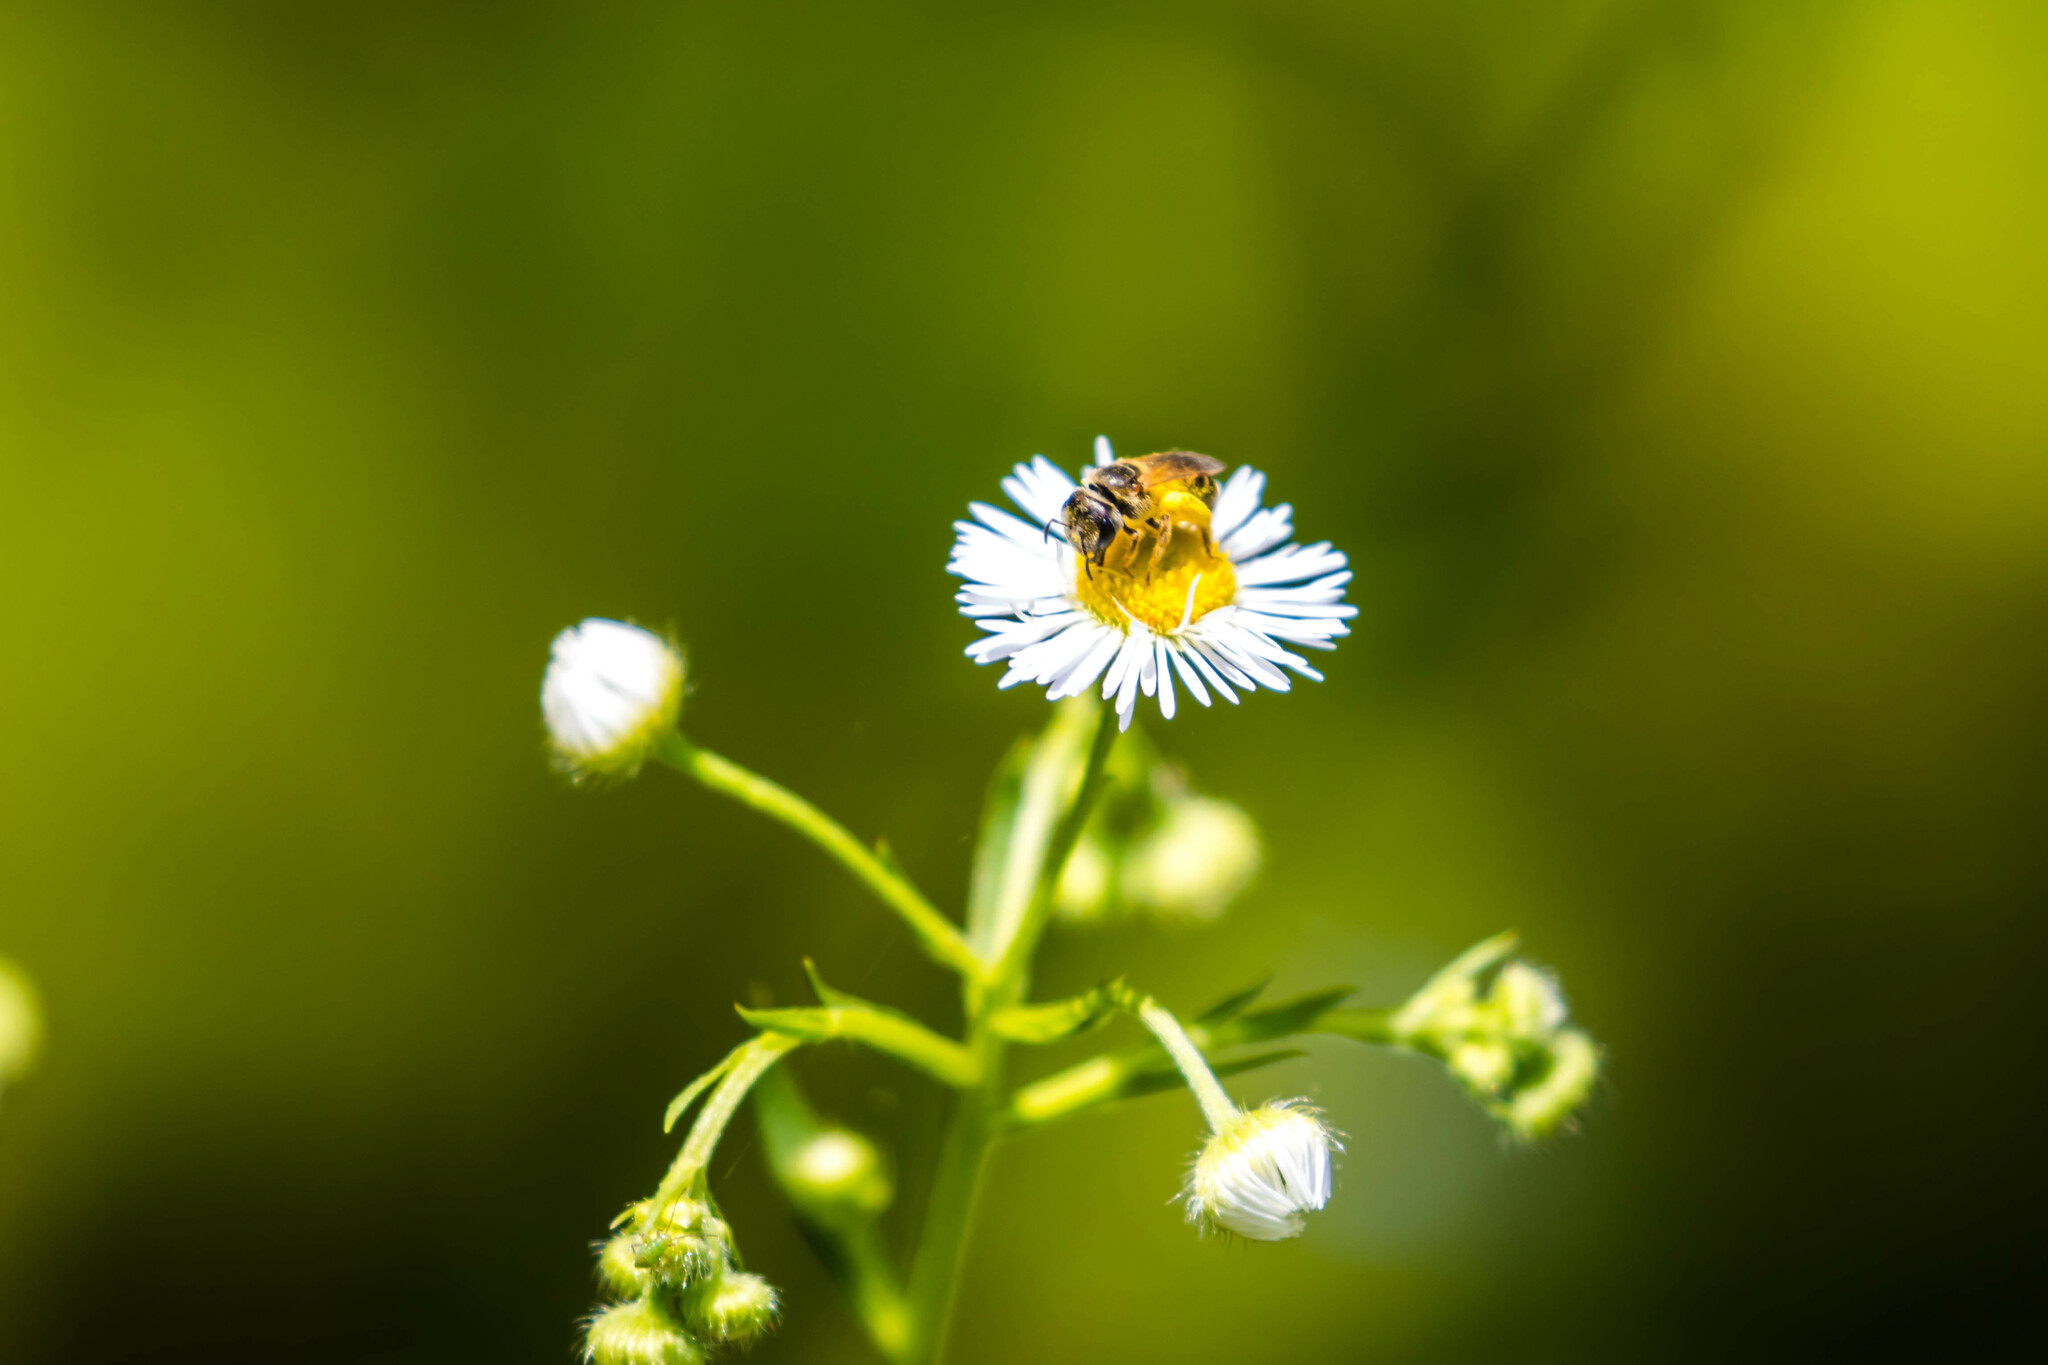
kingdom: Animalia
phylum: Arthropoda
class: Insecta
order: Hymenoptera
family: Halictidae
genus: Halictus
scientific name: Halictus ligatus
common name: Ligated furrow bee
